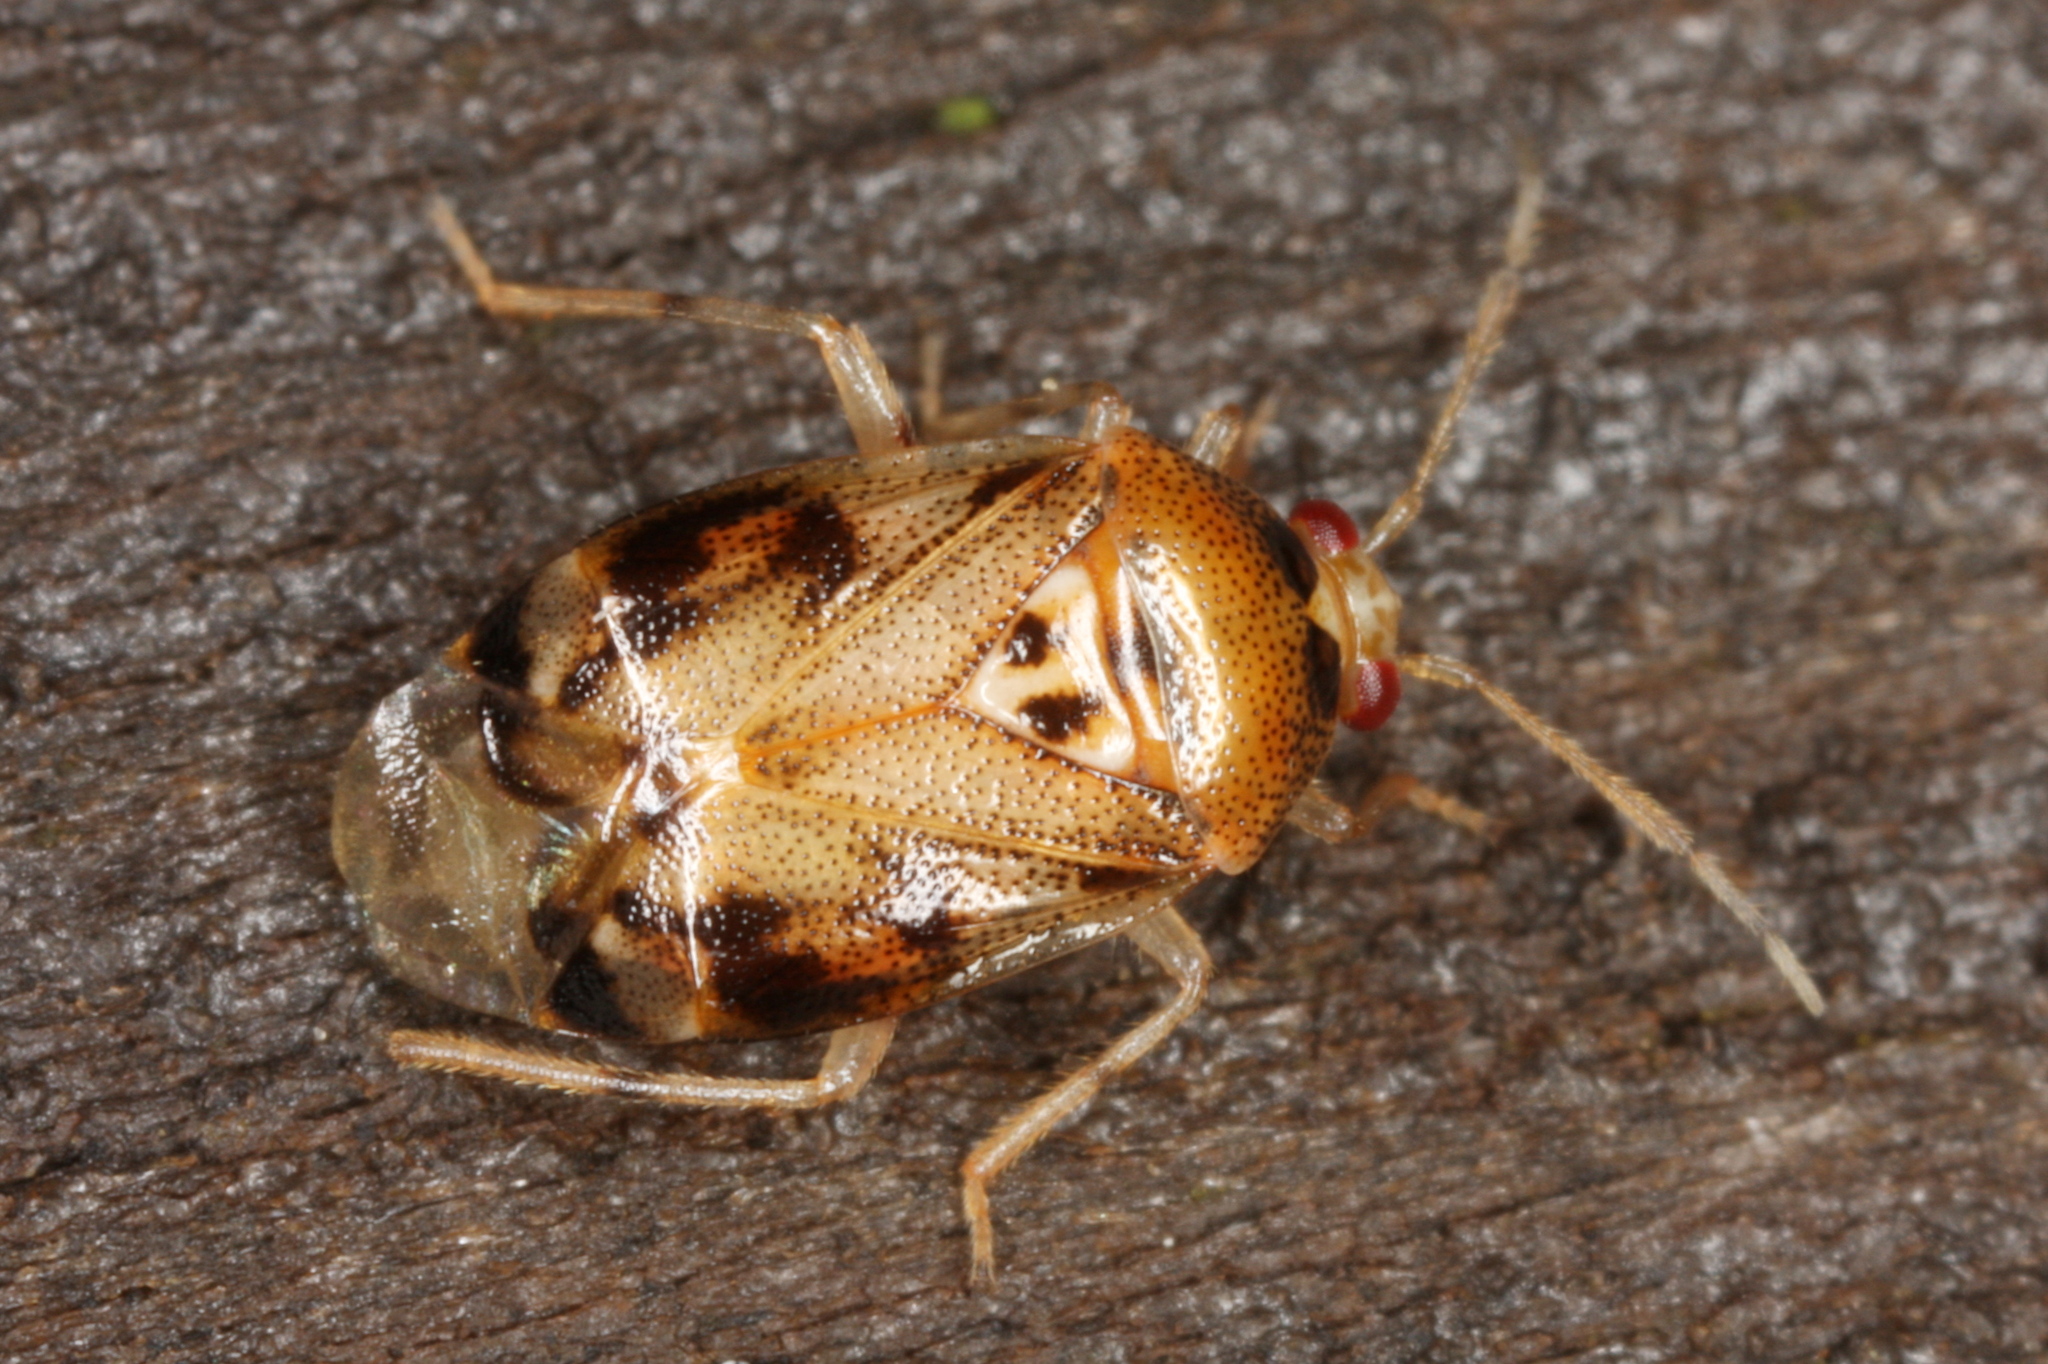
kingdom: Animalia
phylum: Arthropoda
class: Insecta
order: Hemiptera
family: Miridae
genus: Deraeocoris
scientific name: Deraeocoris lutescens
